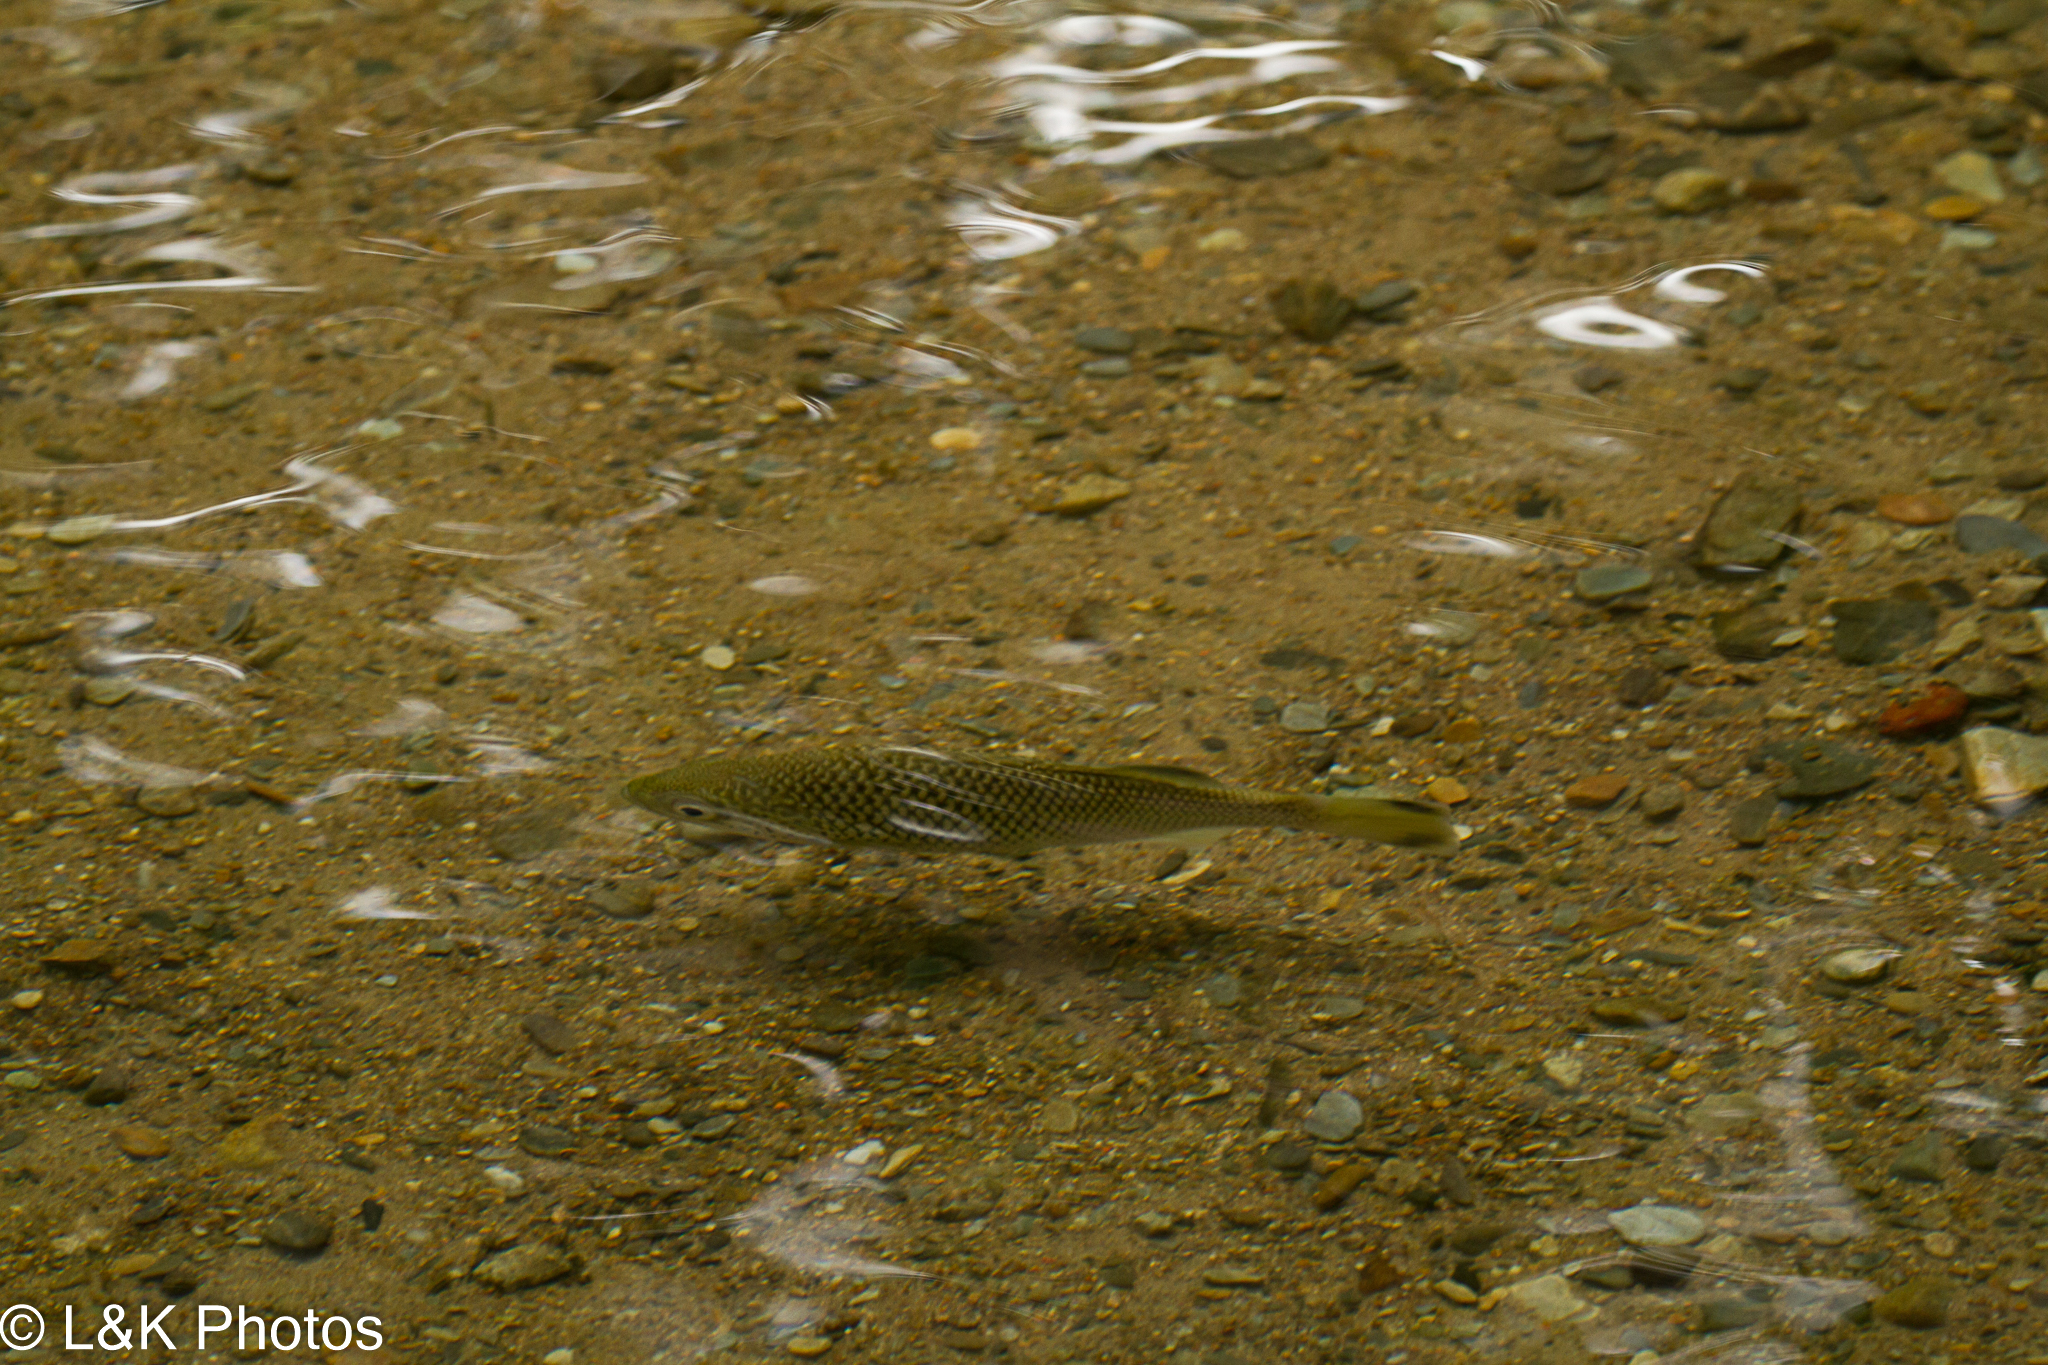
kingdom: Animalia
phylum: Chordata
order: Perciformes
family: Kuhliidae
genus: Kuhlia
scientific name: Kuhlia rupestris
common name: Rock flagtail
